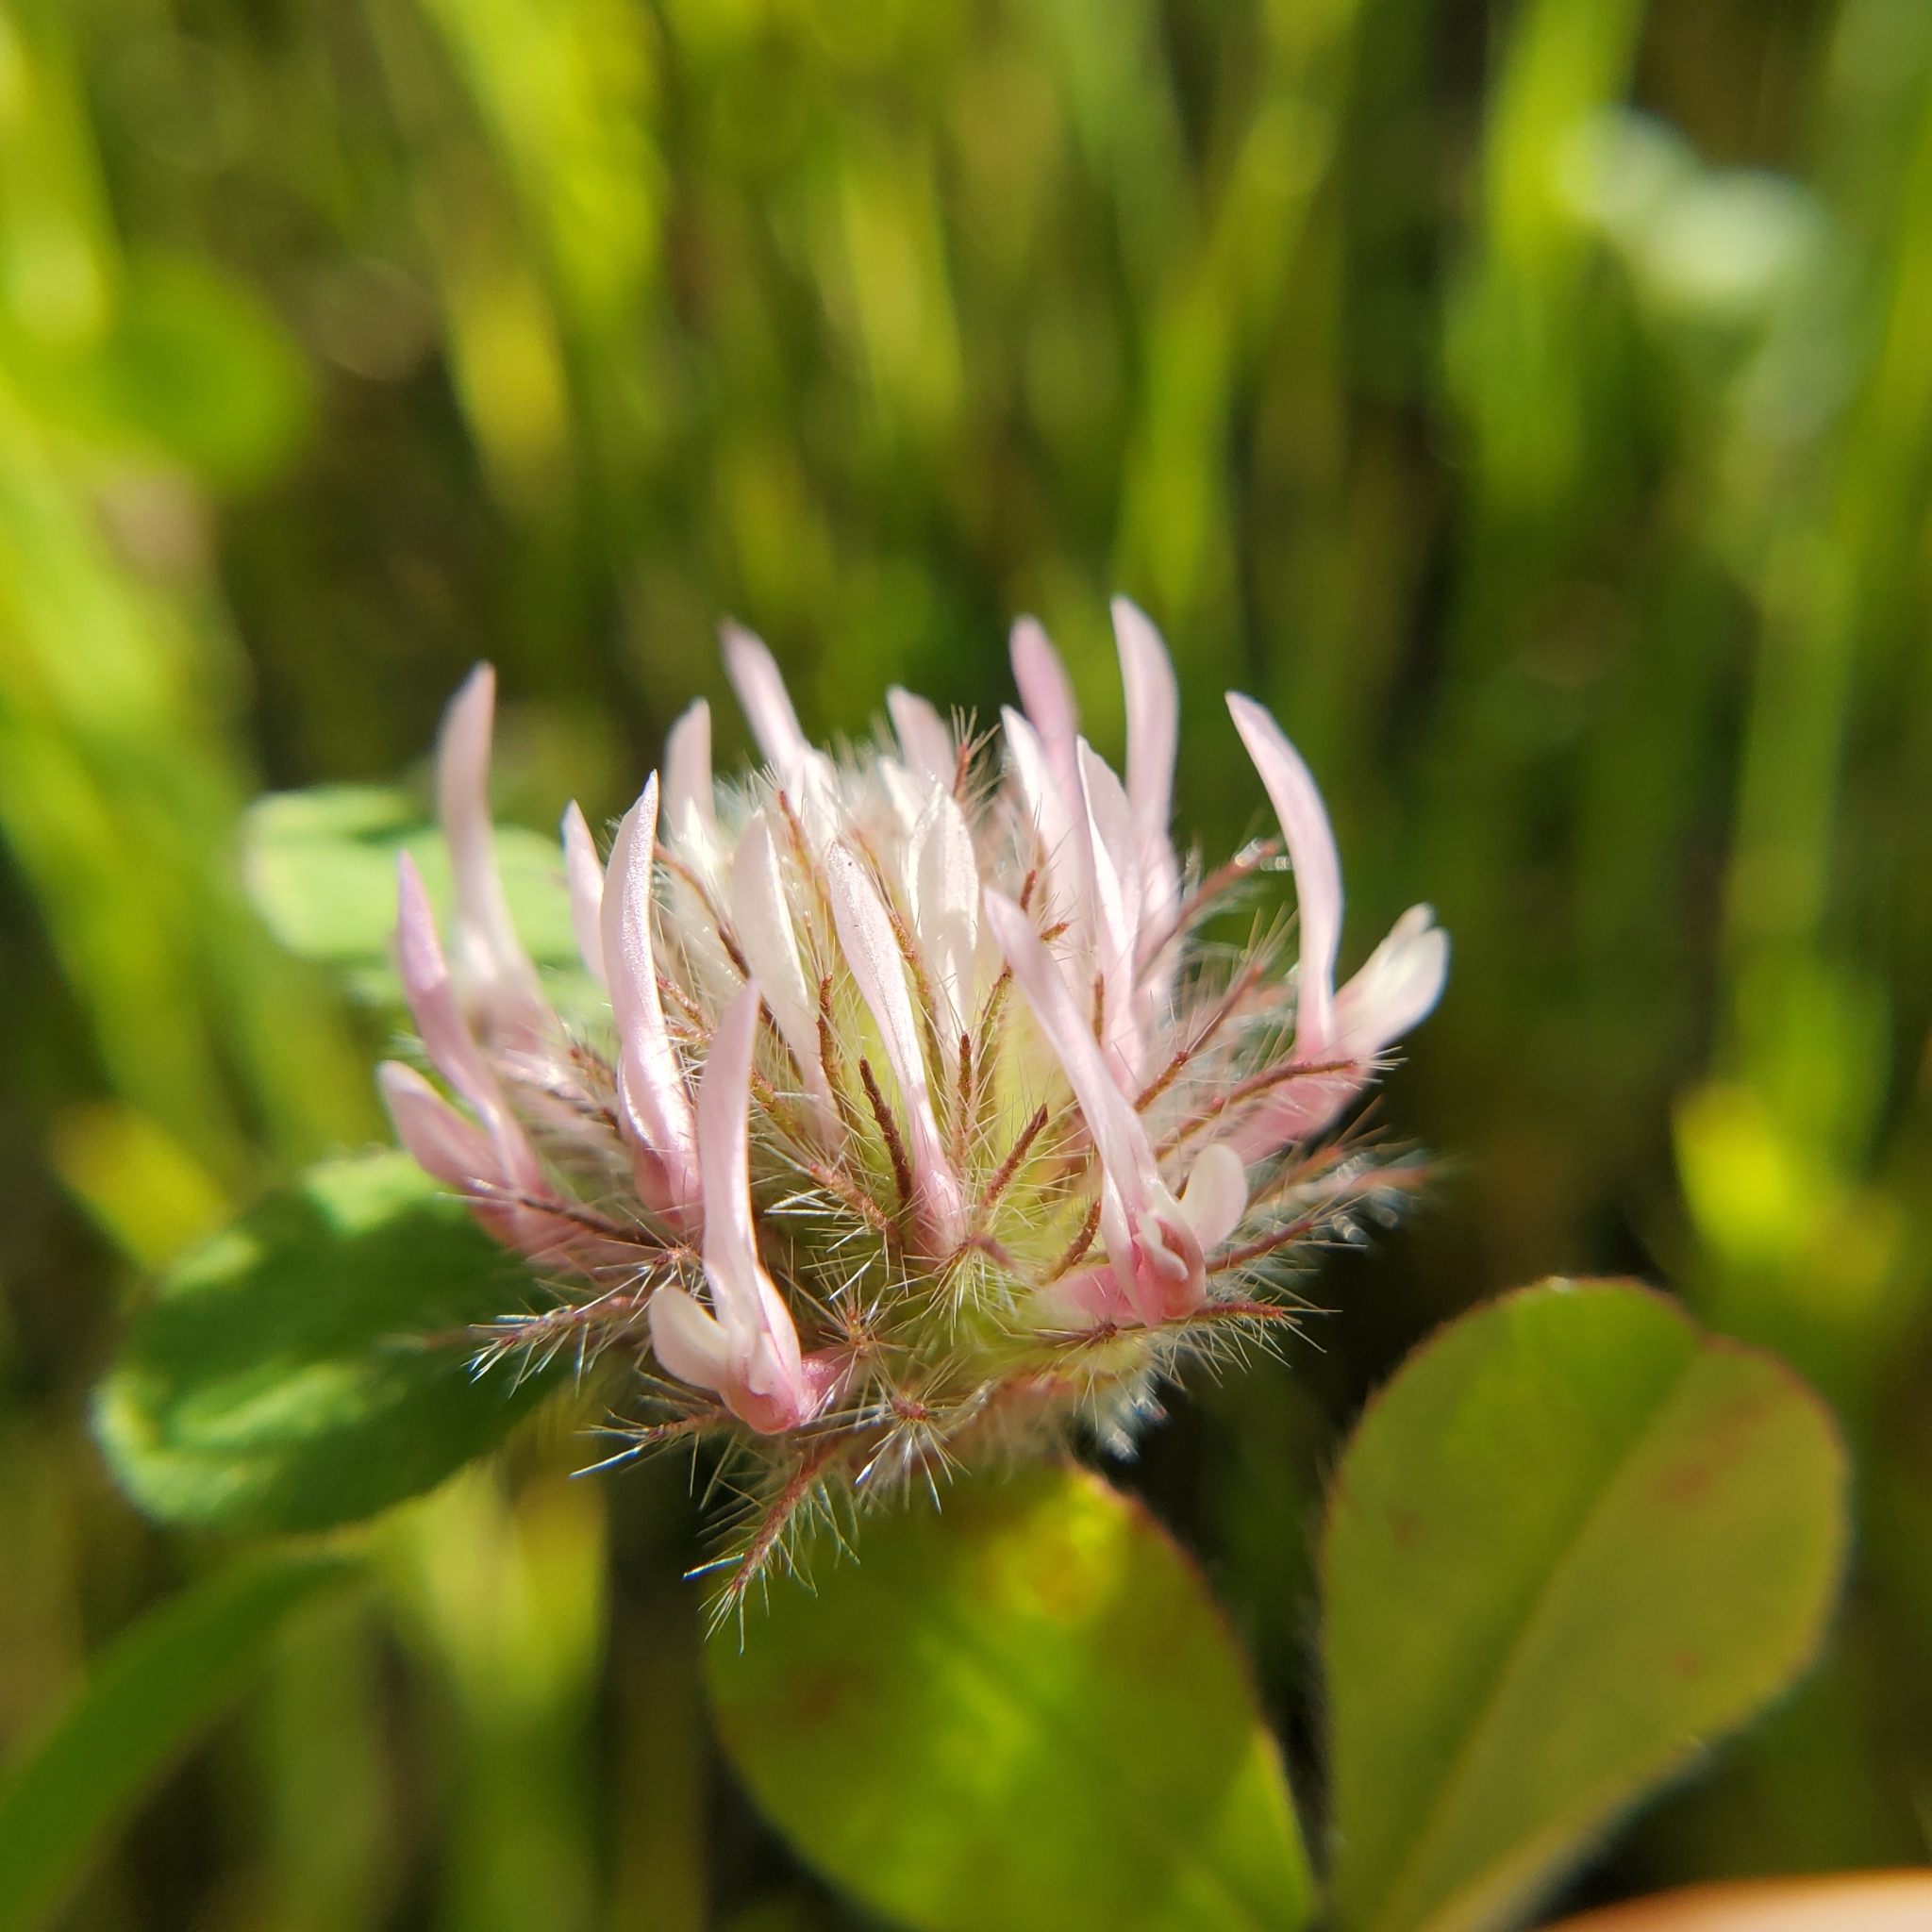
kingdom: Plantae
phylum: Tracheophyta
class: Magnoliopsida
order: Fabales
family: Fabaceae
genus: Trifolium
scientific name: Trifolium hirtum
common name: Rose clover
